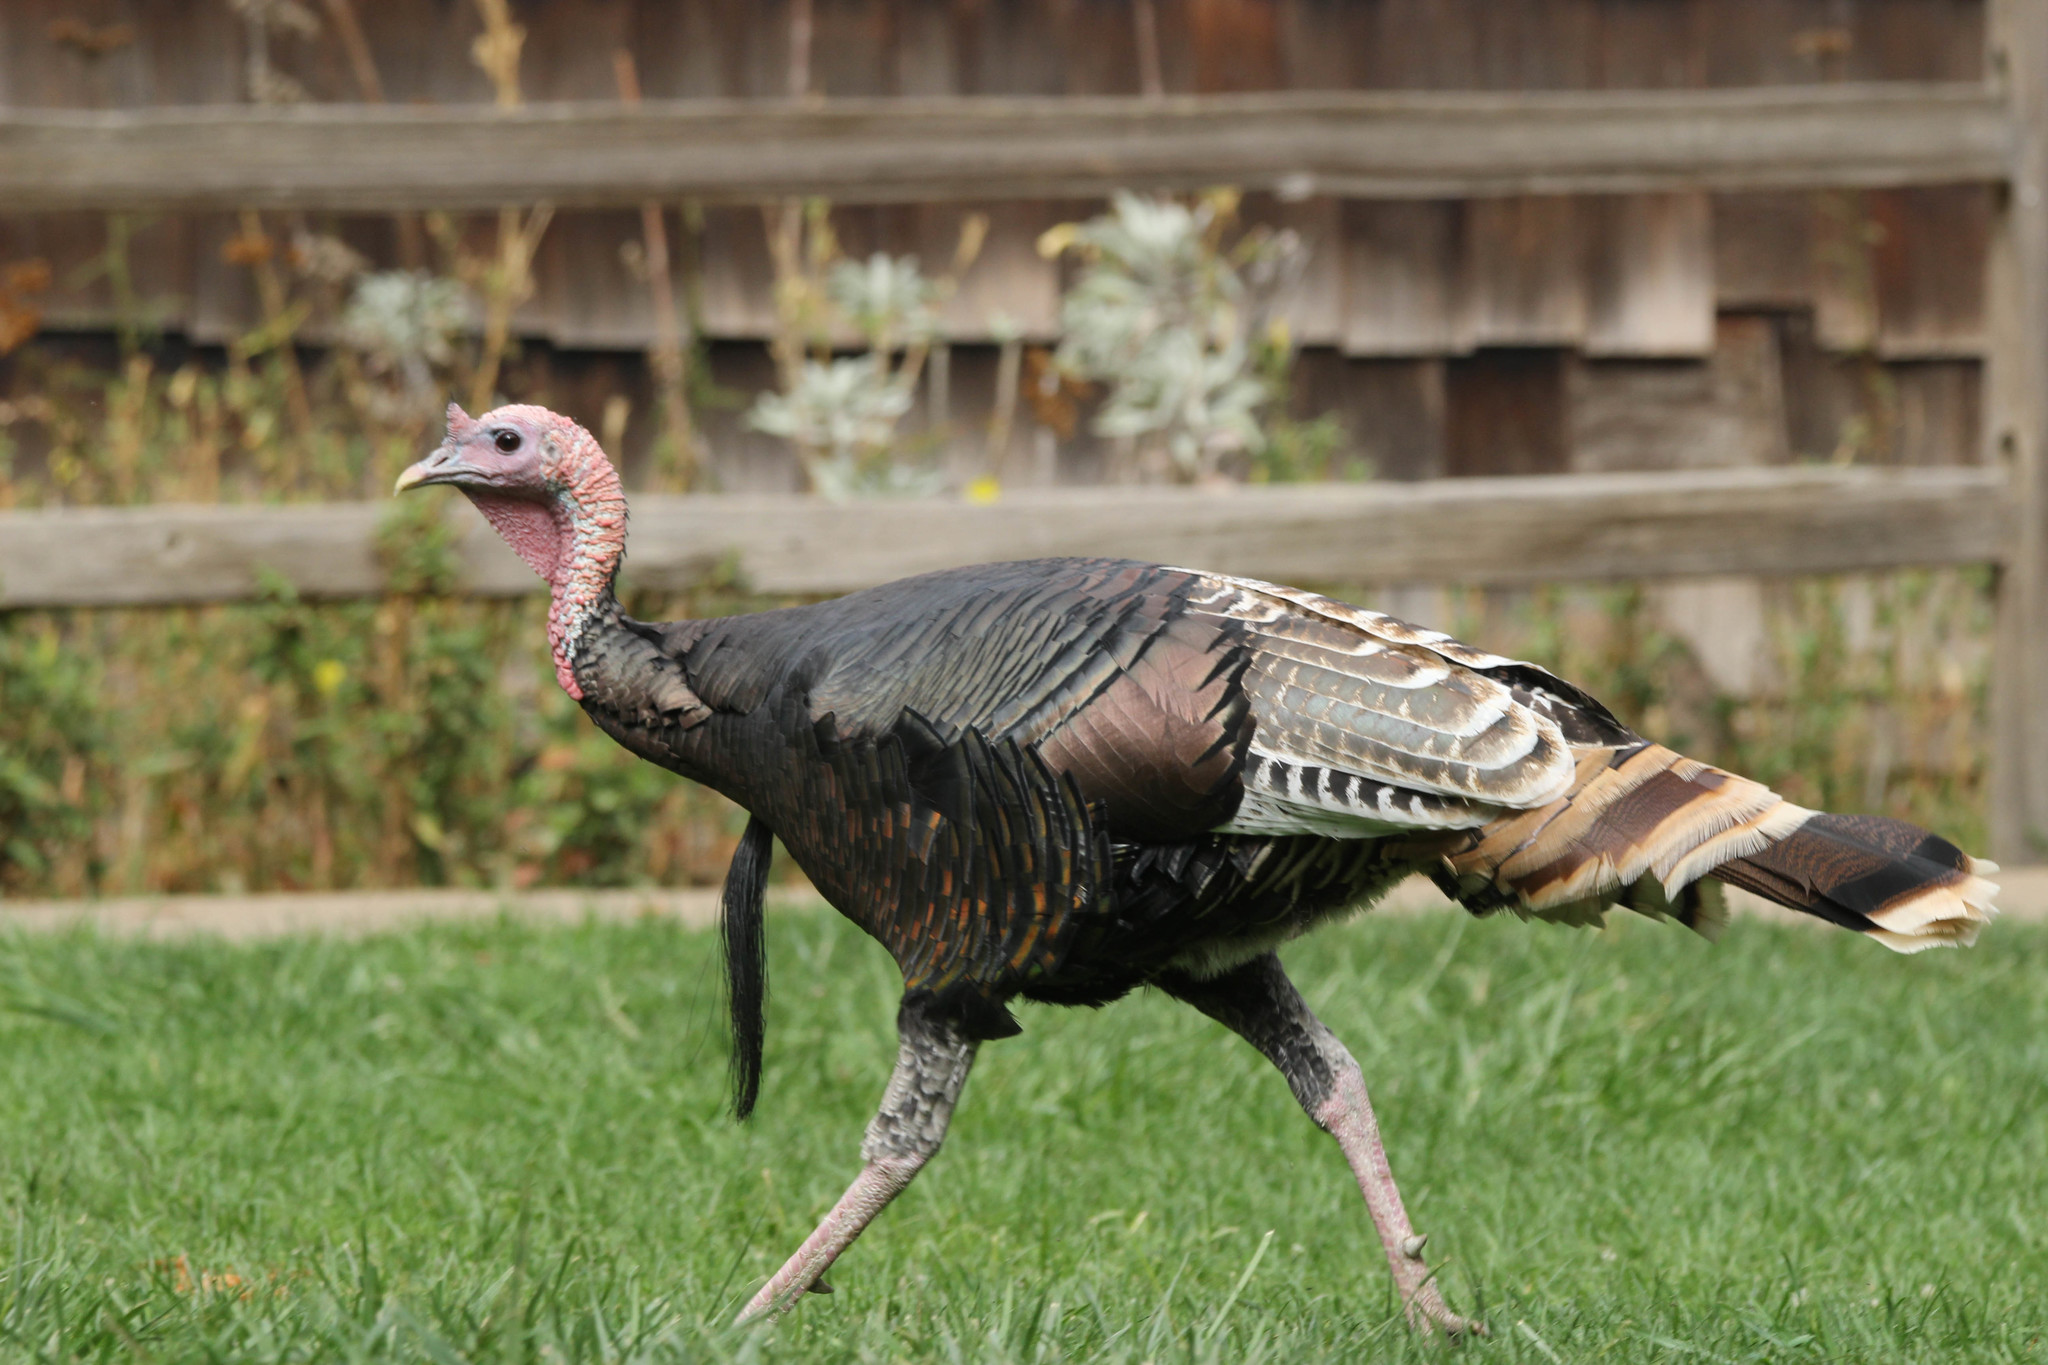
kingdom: Animalia
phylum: Chordata
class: Aves
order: Galliformes
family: Phasianidae
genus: Meleagris
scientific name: Meleagris gallopavo
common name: Wild turkey
